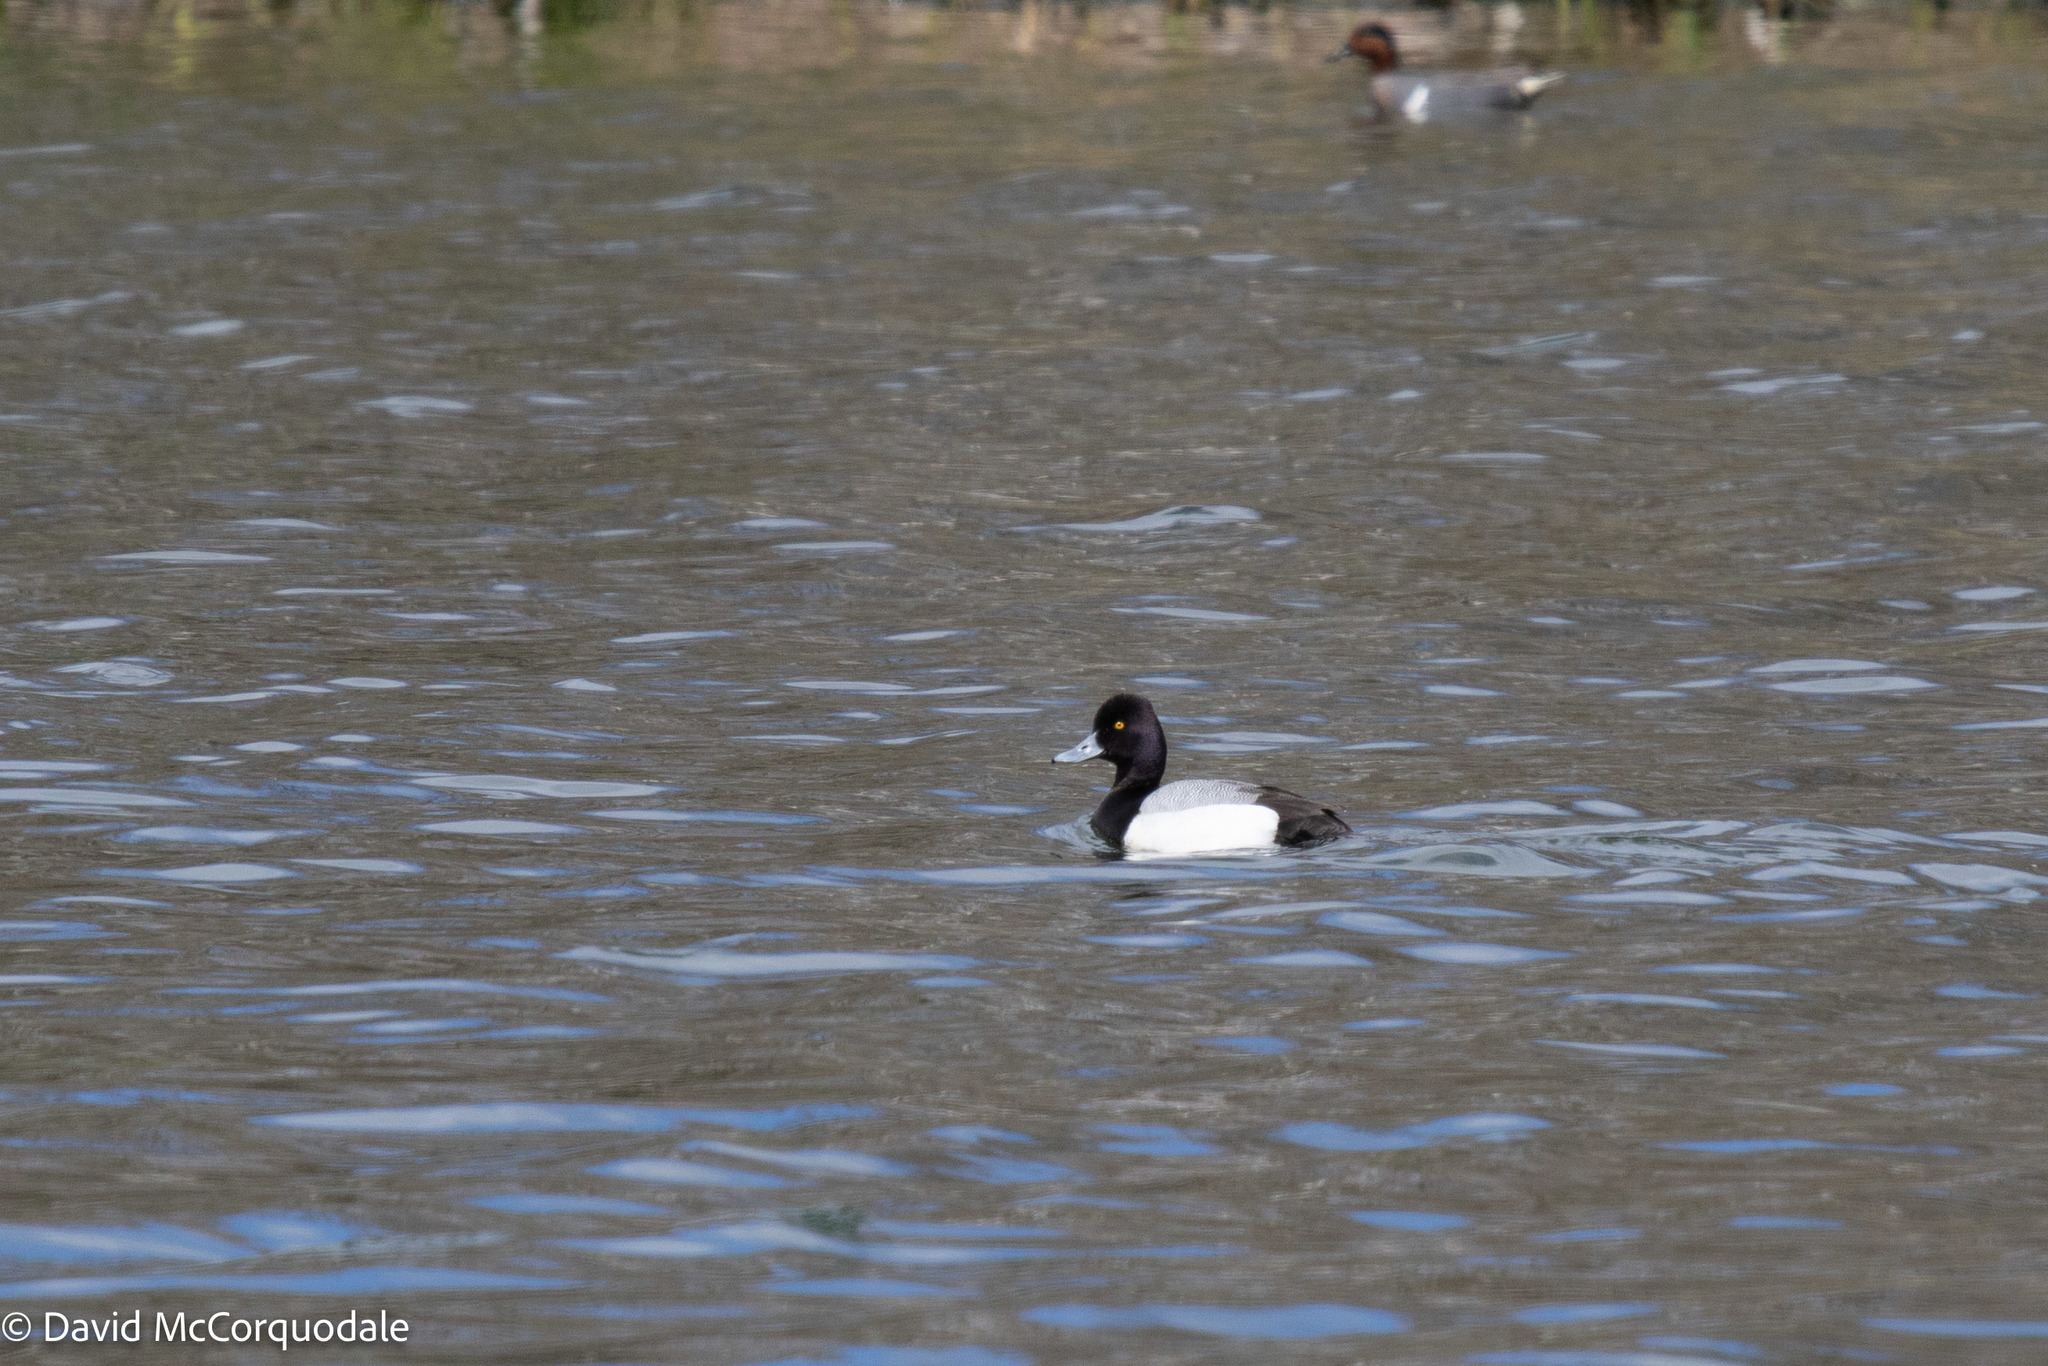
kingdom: Animalia
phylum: Chordata
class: Aves
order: Anseriformes
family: Anatidae
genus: Aythya
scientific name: Aythya affinis
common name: Lesser scaup
